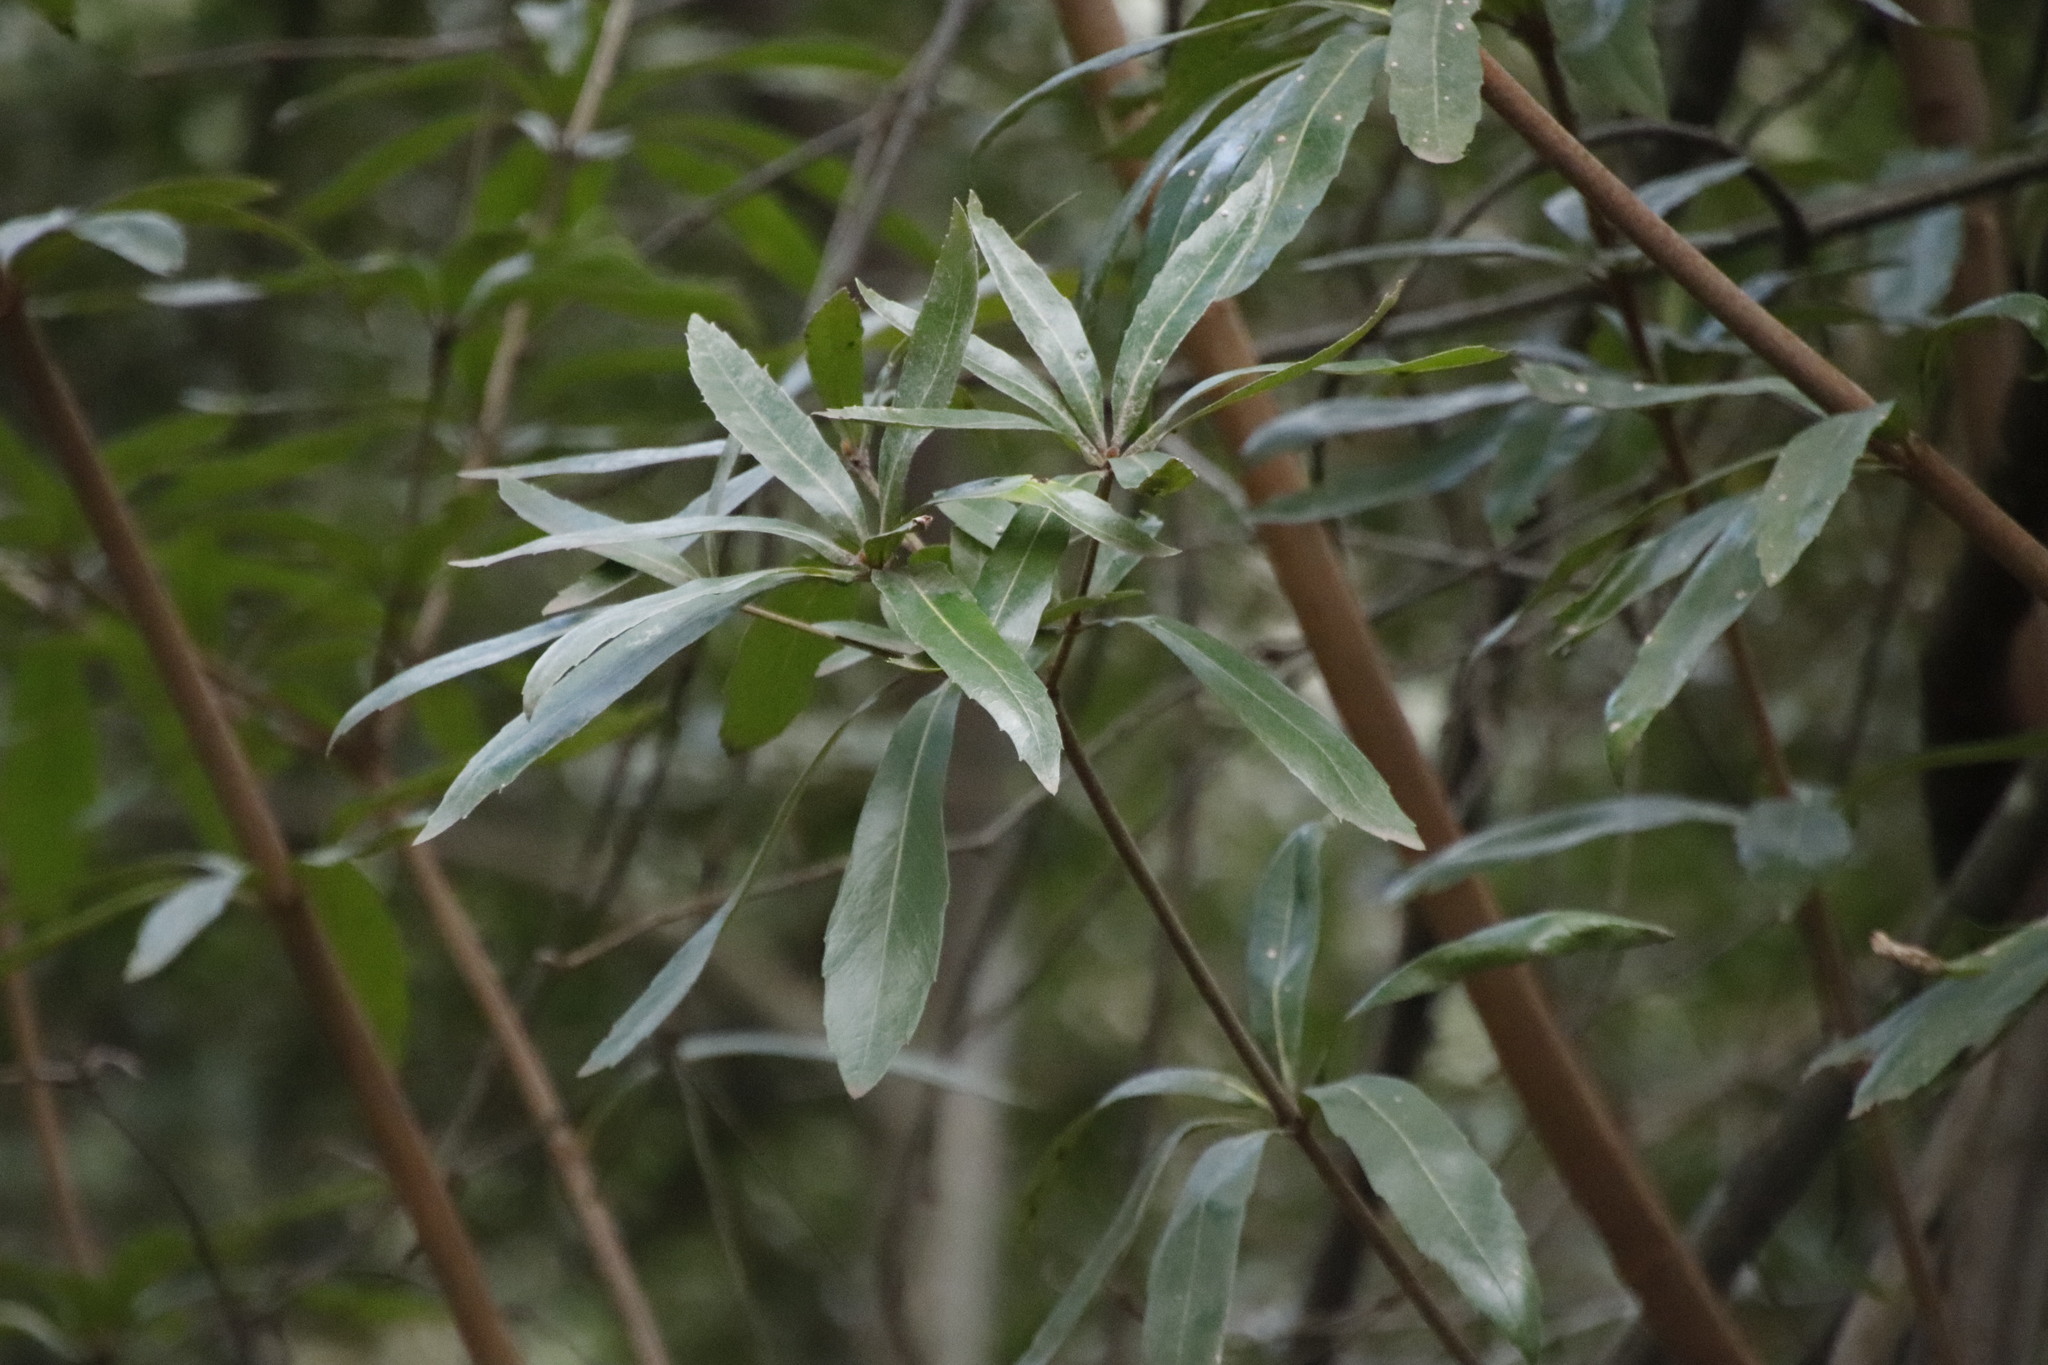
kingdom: Plantae
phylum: Tracheophyta
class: Magnoliopsida
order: Proteales
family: Proteaceae
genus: Brabejum
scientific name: Brabejum stellatifolium
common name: Wild almond
